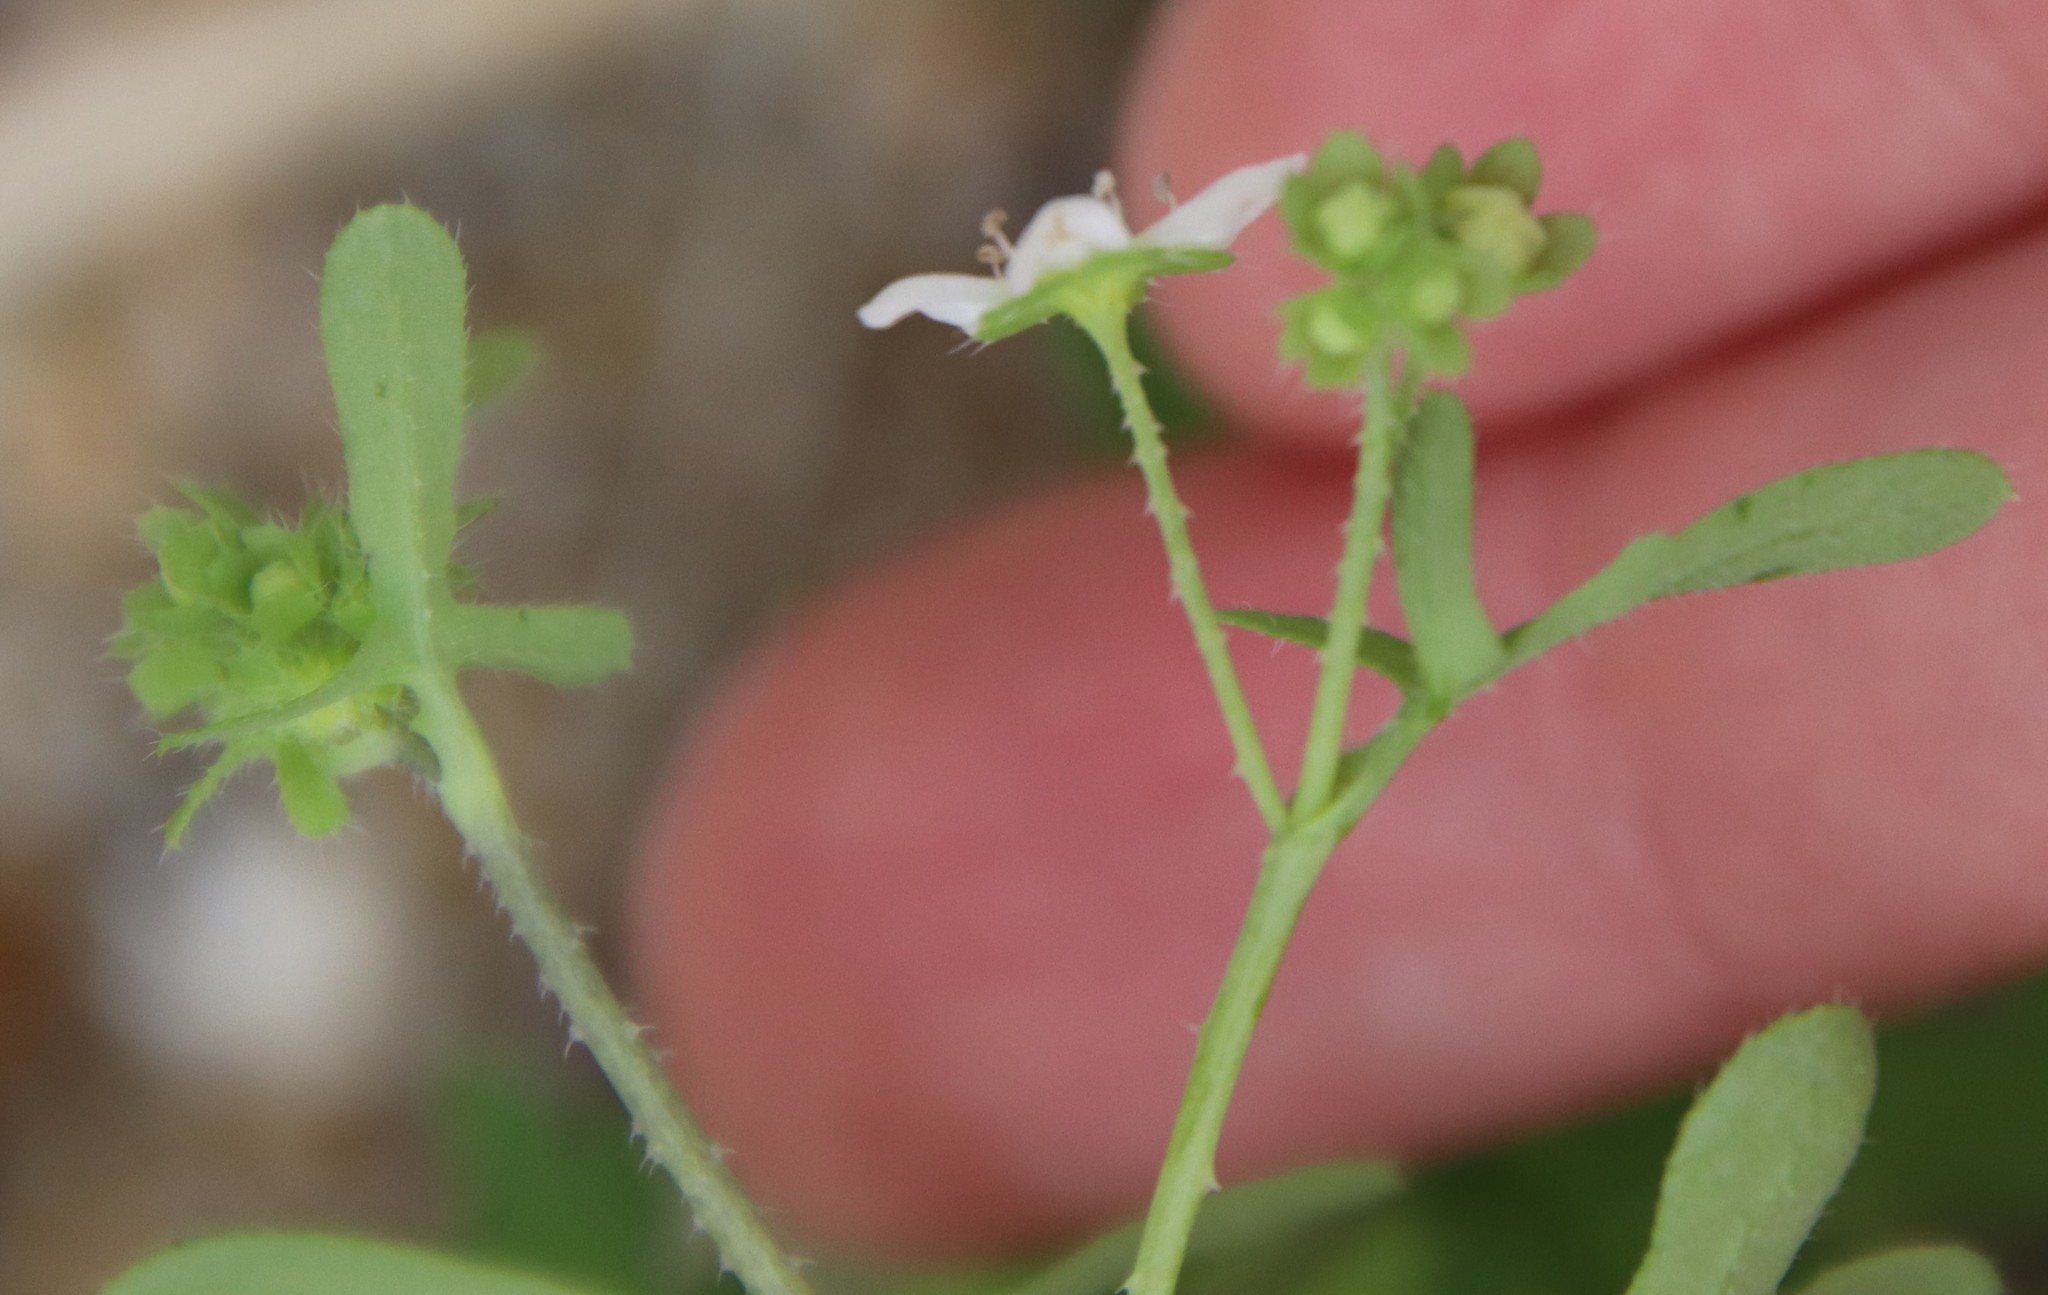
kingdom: Plantae
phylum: Tracheophyta
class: Magnoliopsida
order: Boraginales
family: Hydrophyllaceae
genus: Pholistoma
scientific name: Pholistoma membranaceum
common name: White fiesta-flower
